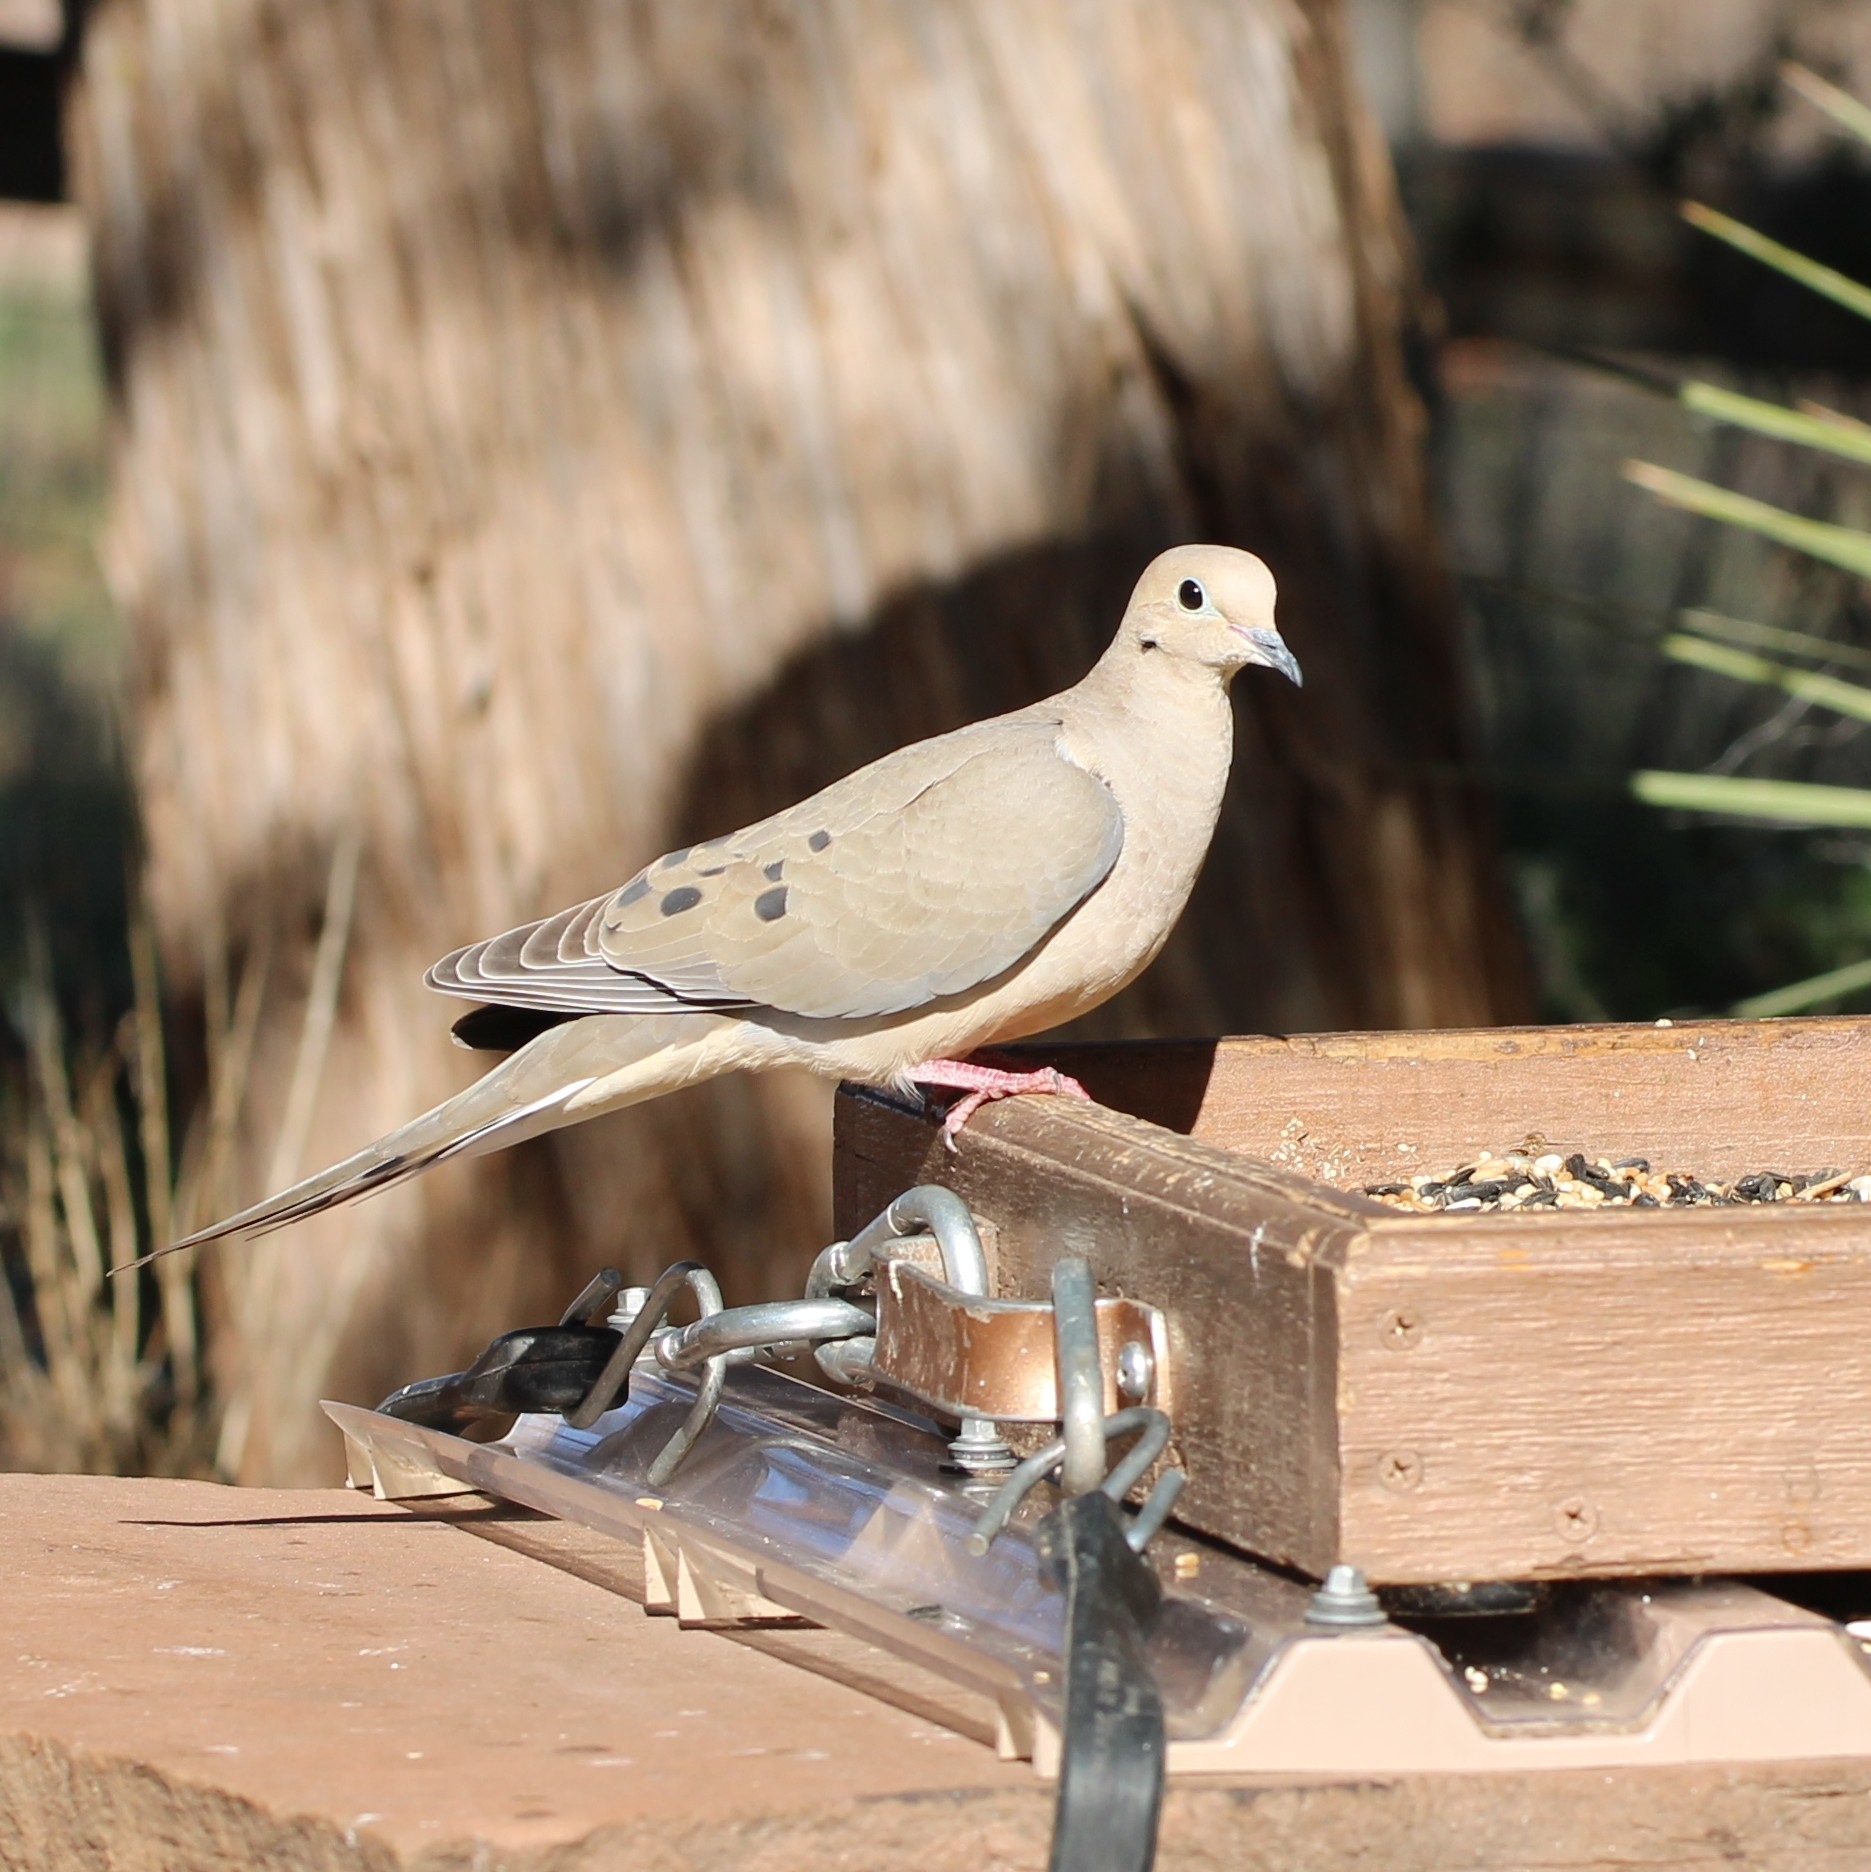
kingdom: Animalia
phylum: Chordata
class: Aves
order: Columbiformes
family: Columbidae
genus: Zenaida
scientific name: Zenaida macroura
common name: Mourning dove
